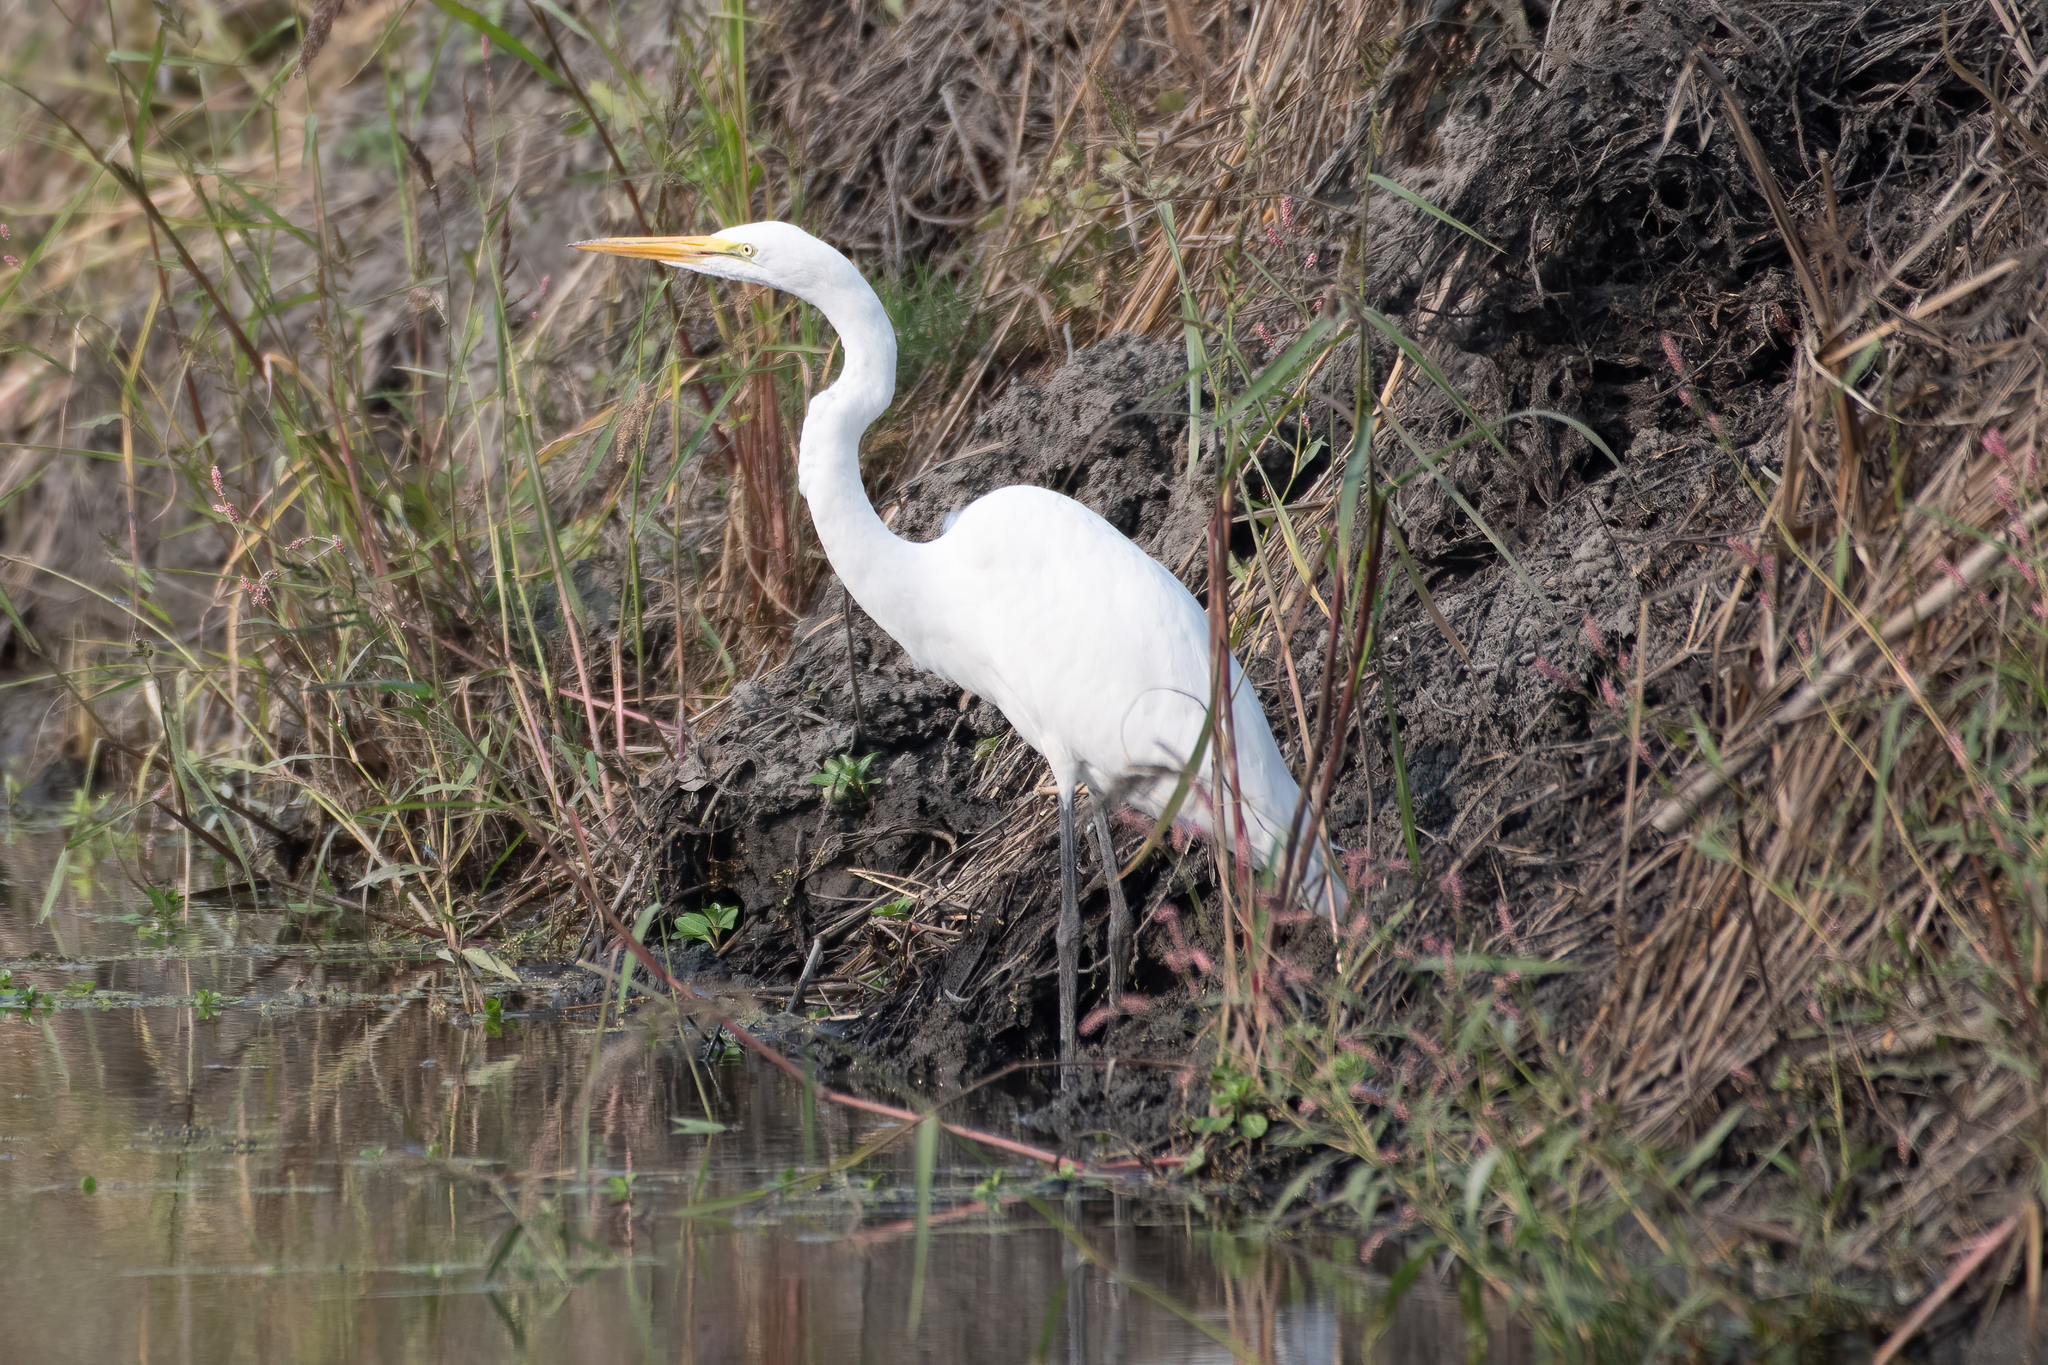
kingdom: Animalia
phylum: Chordata
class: Aves
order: Pelecaniformes
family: Ardeidae
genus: Ardea
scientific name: Ardea alba
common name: Great egret
